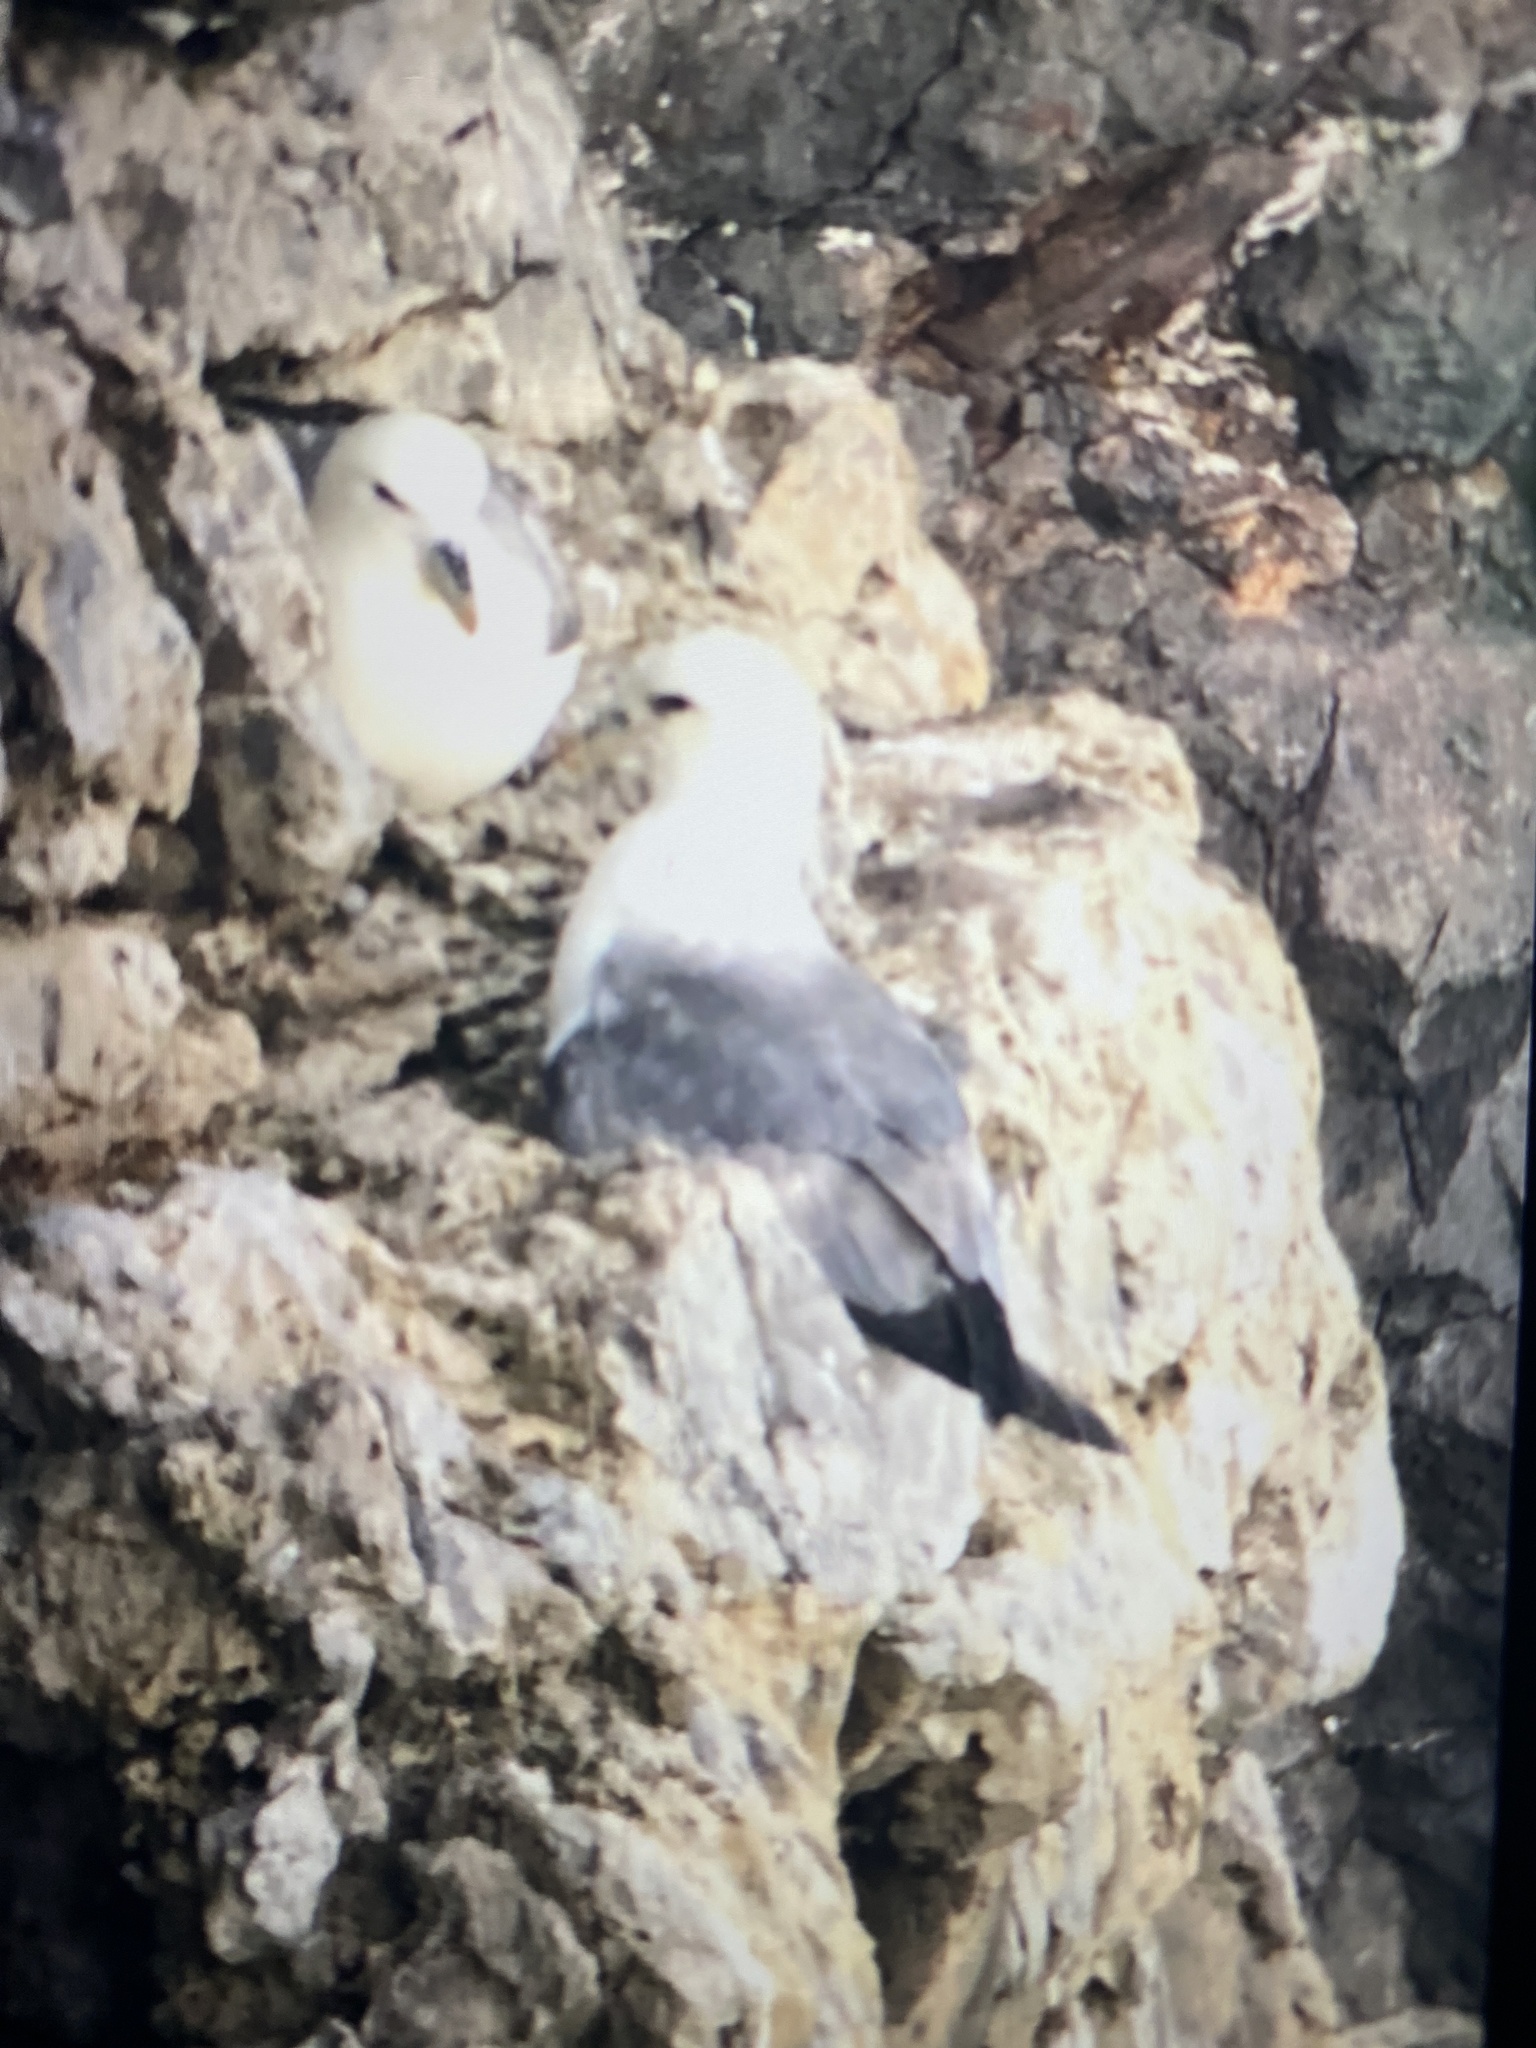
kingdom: Animalia
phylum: Chordata
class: Aves
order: Procellariiformes
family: Procellariidae
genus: Fulmarus
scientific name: Fulmarus glacialis
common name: Northern fulmar
